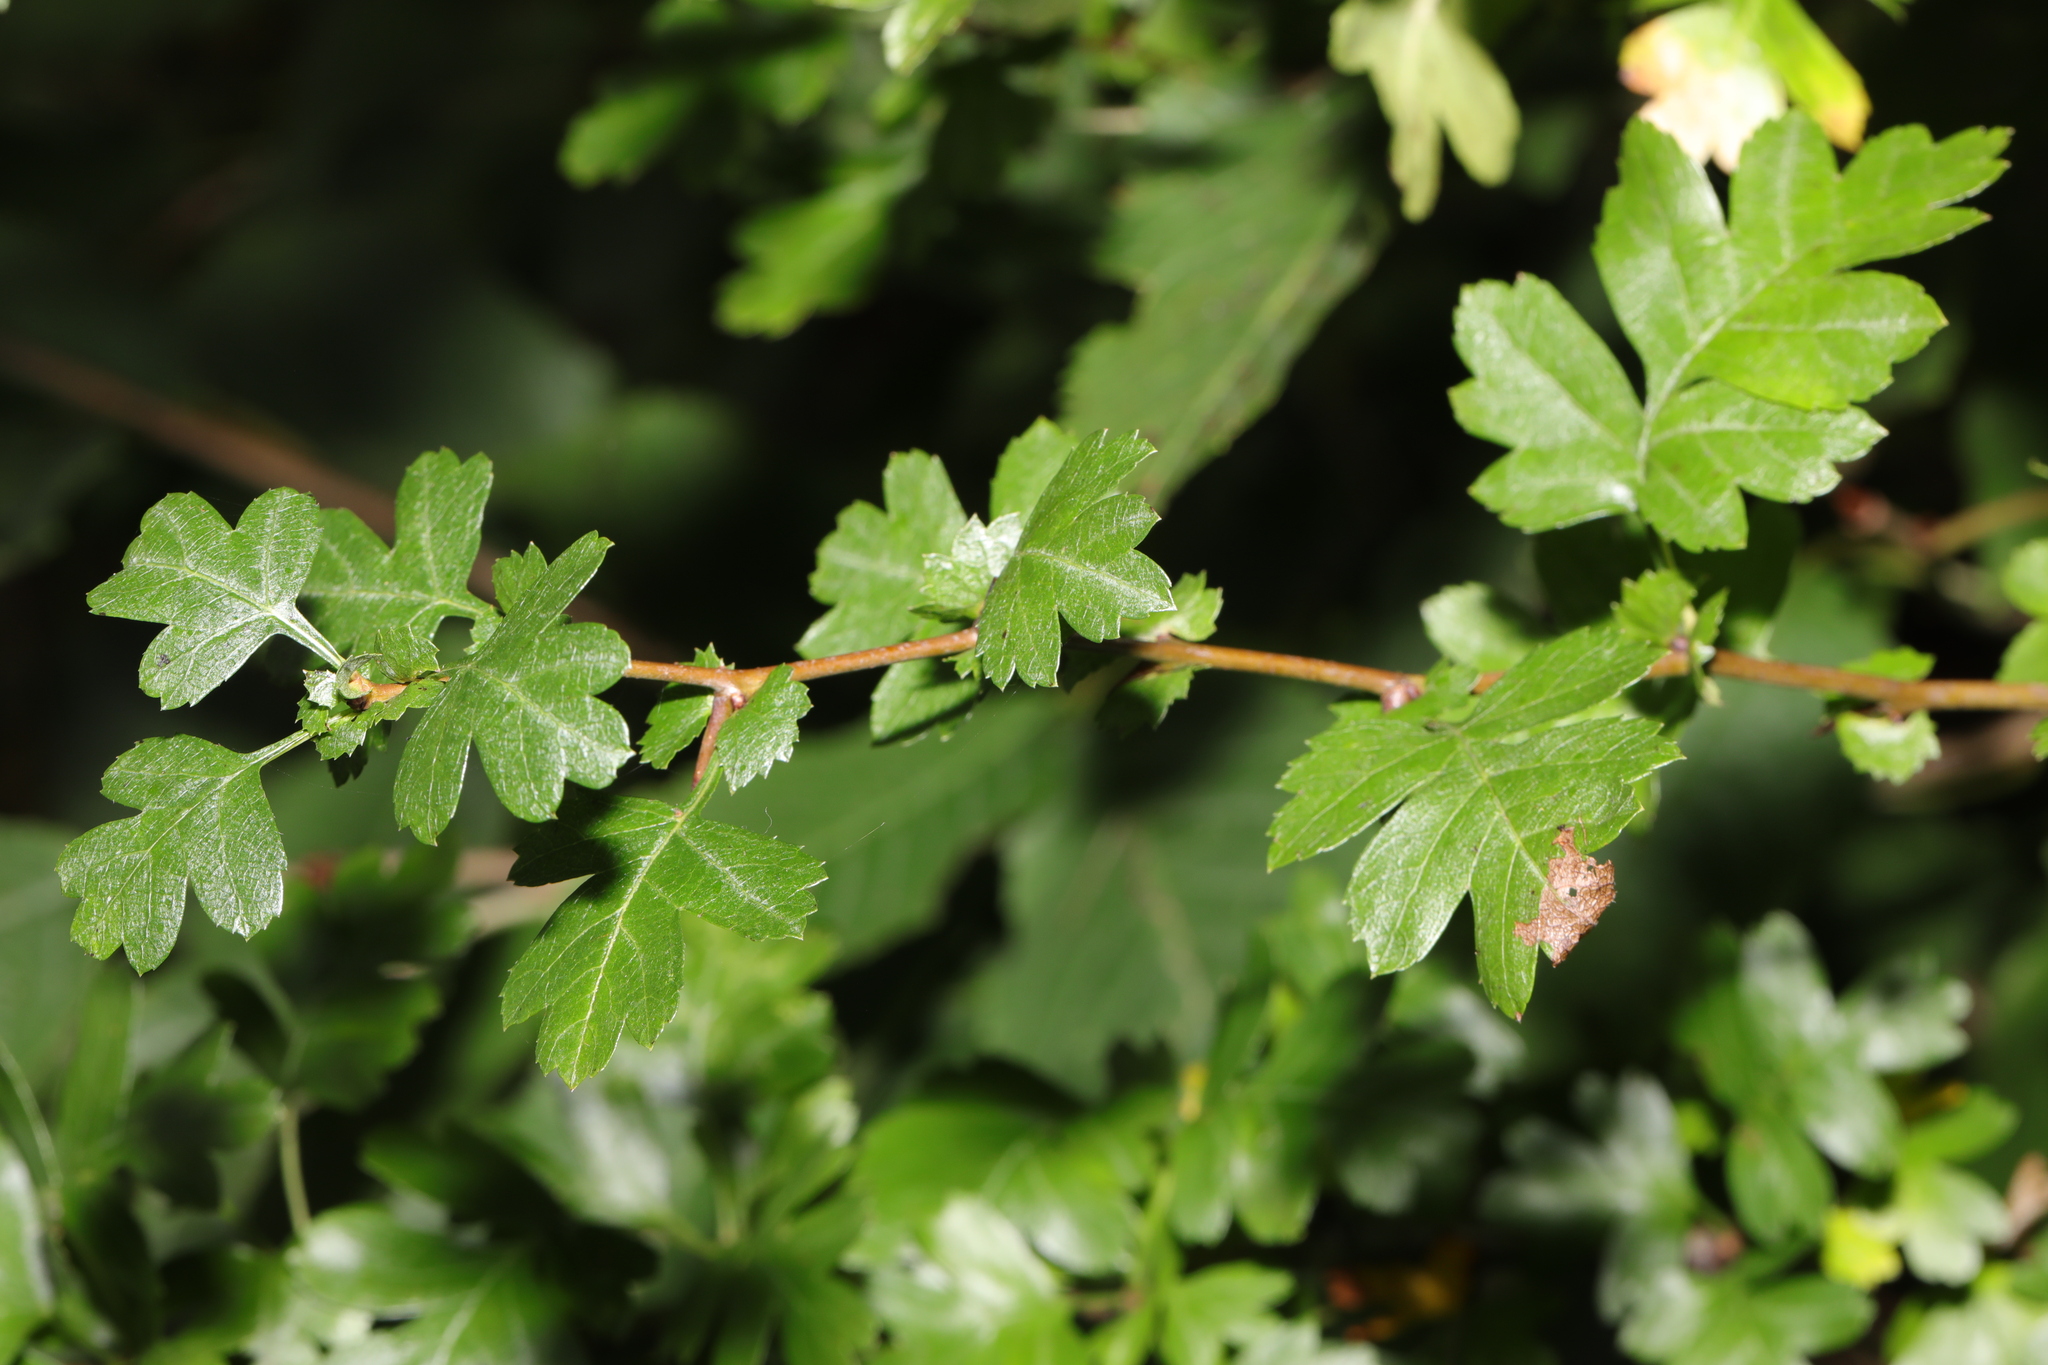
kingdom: Plantae
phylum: Tracheophyta
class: Magnoliopsida
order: Rosales
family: Rosaceae
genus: Crataegus
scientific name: Crataegus monogyna
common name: Hawthorn
